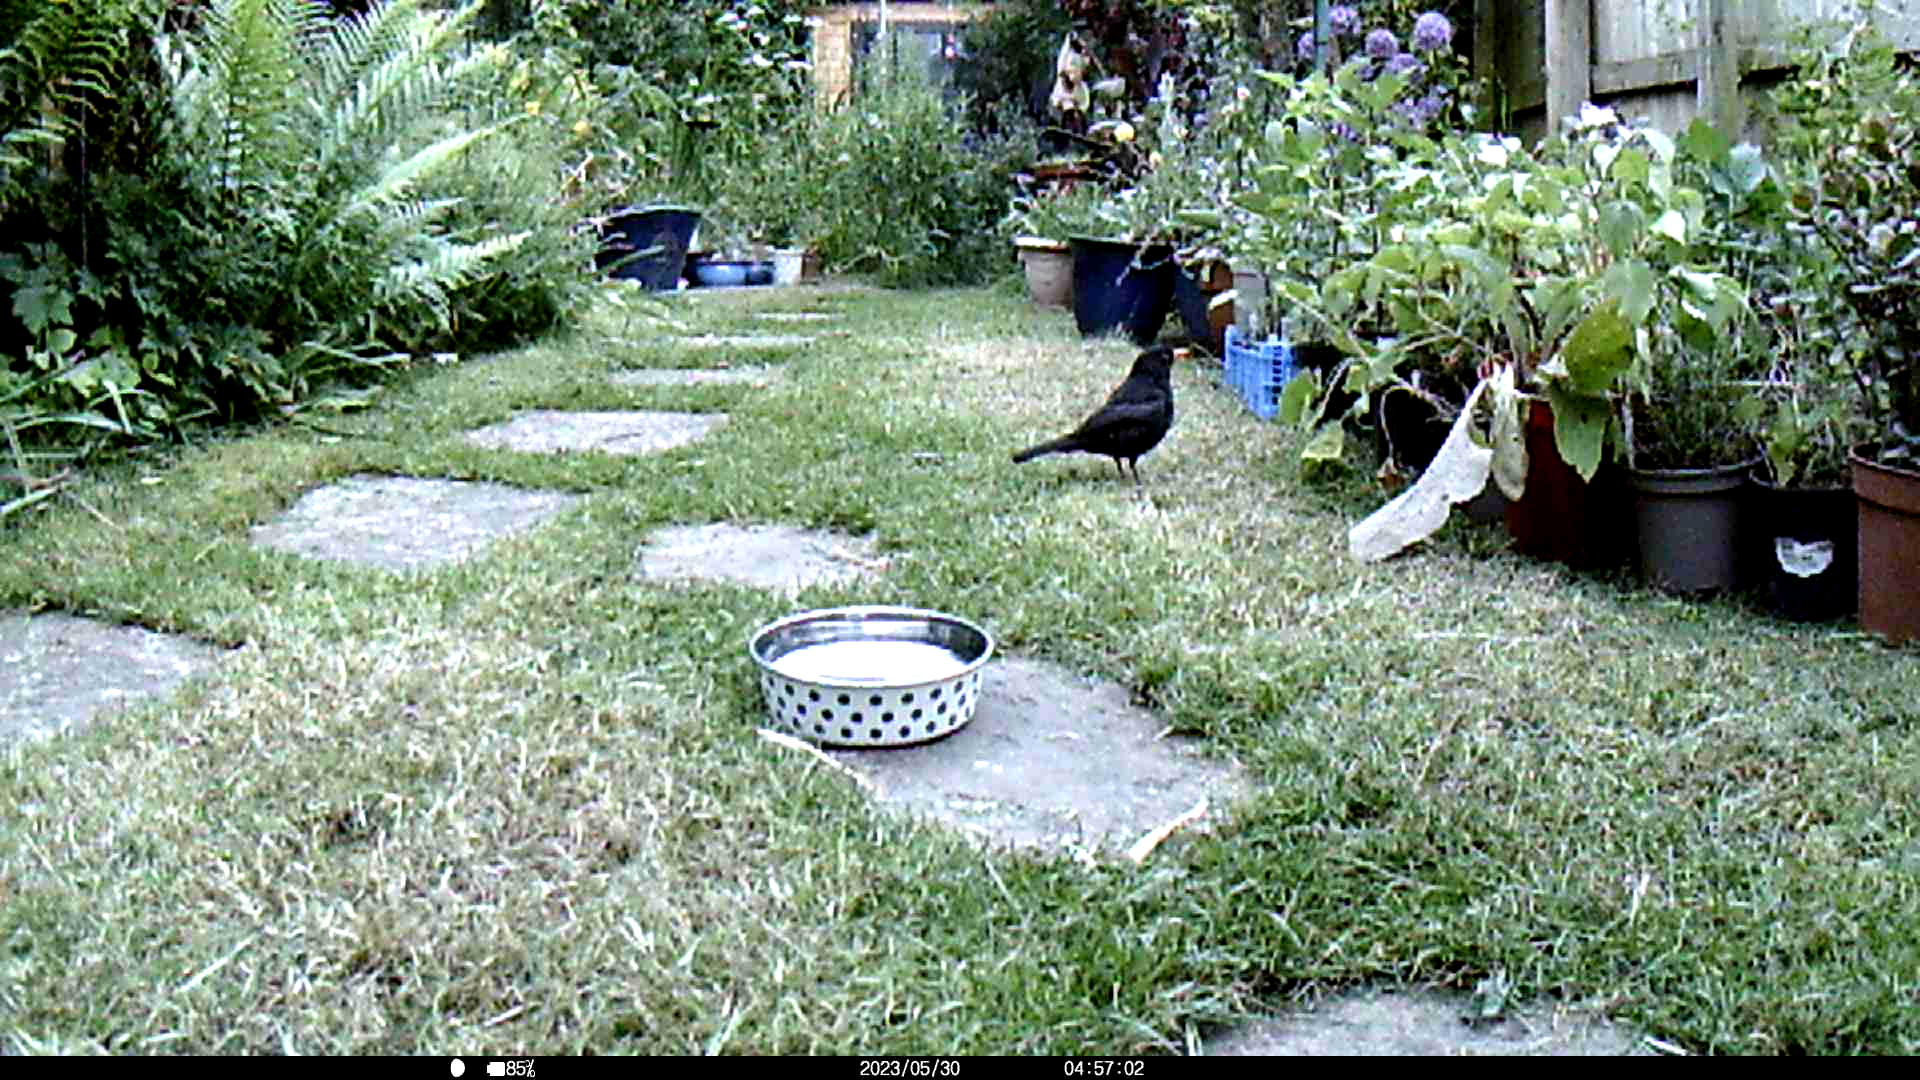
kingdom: Animalia
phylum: Chordata
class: Aves
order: Passeriformes
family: Turdidae
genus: Turdus
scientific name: Turdus merula
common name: Common blackbird
